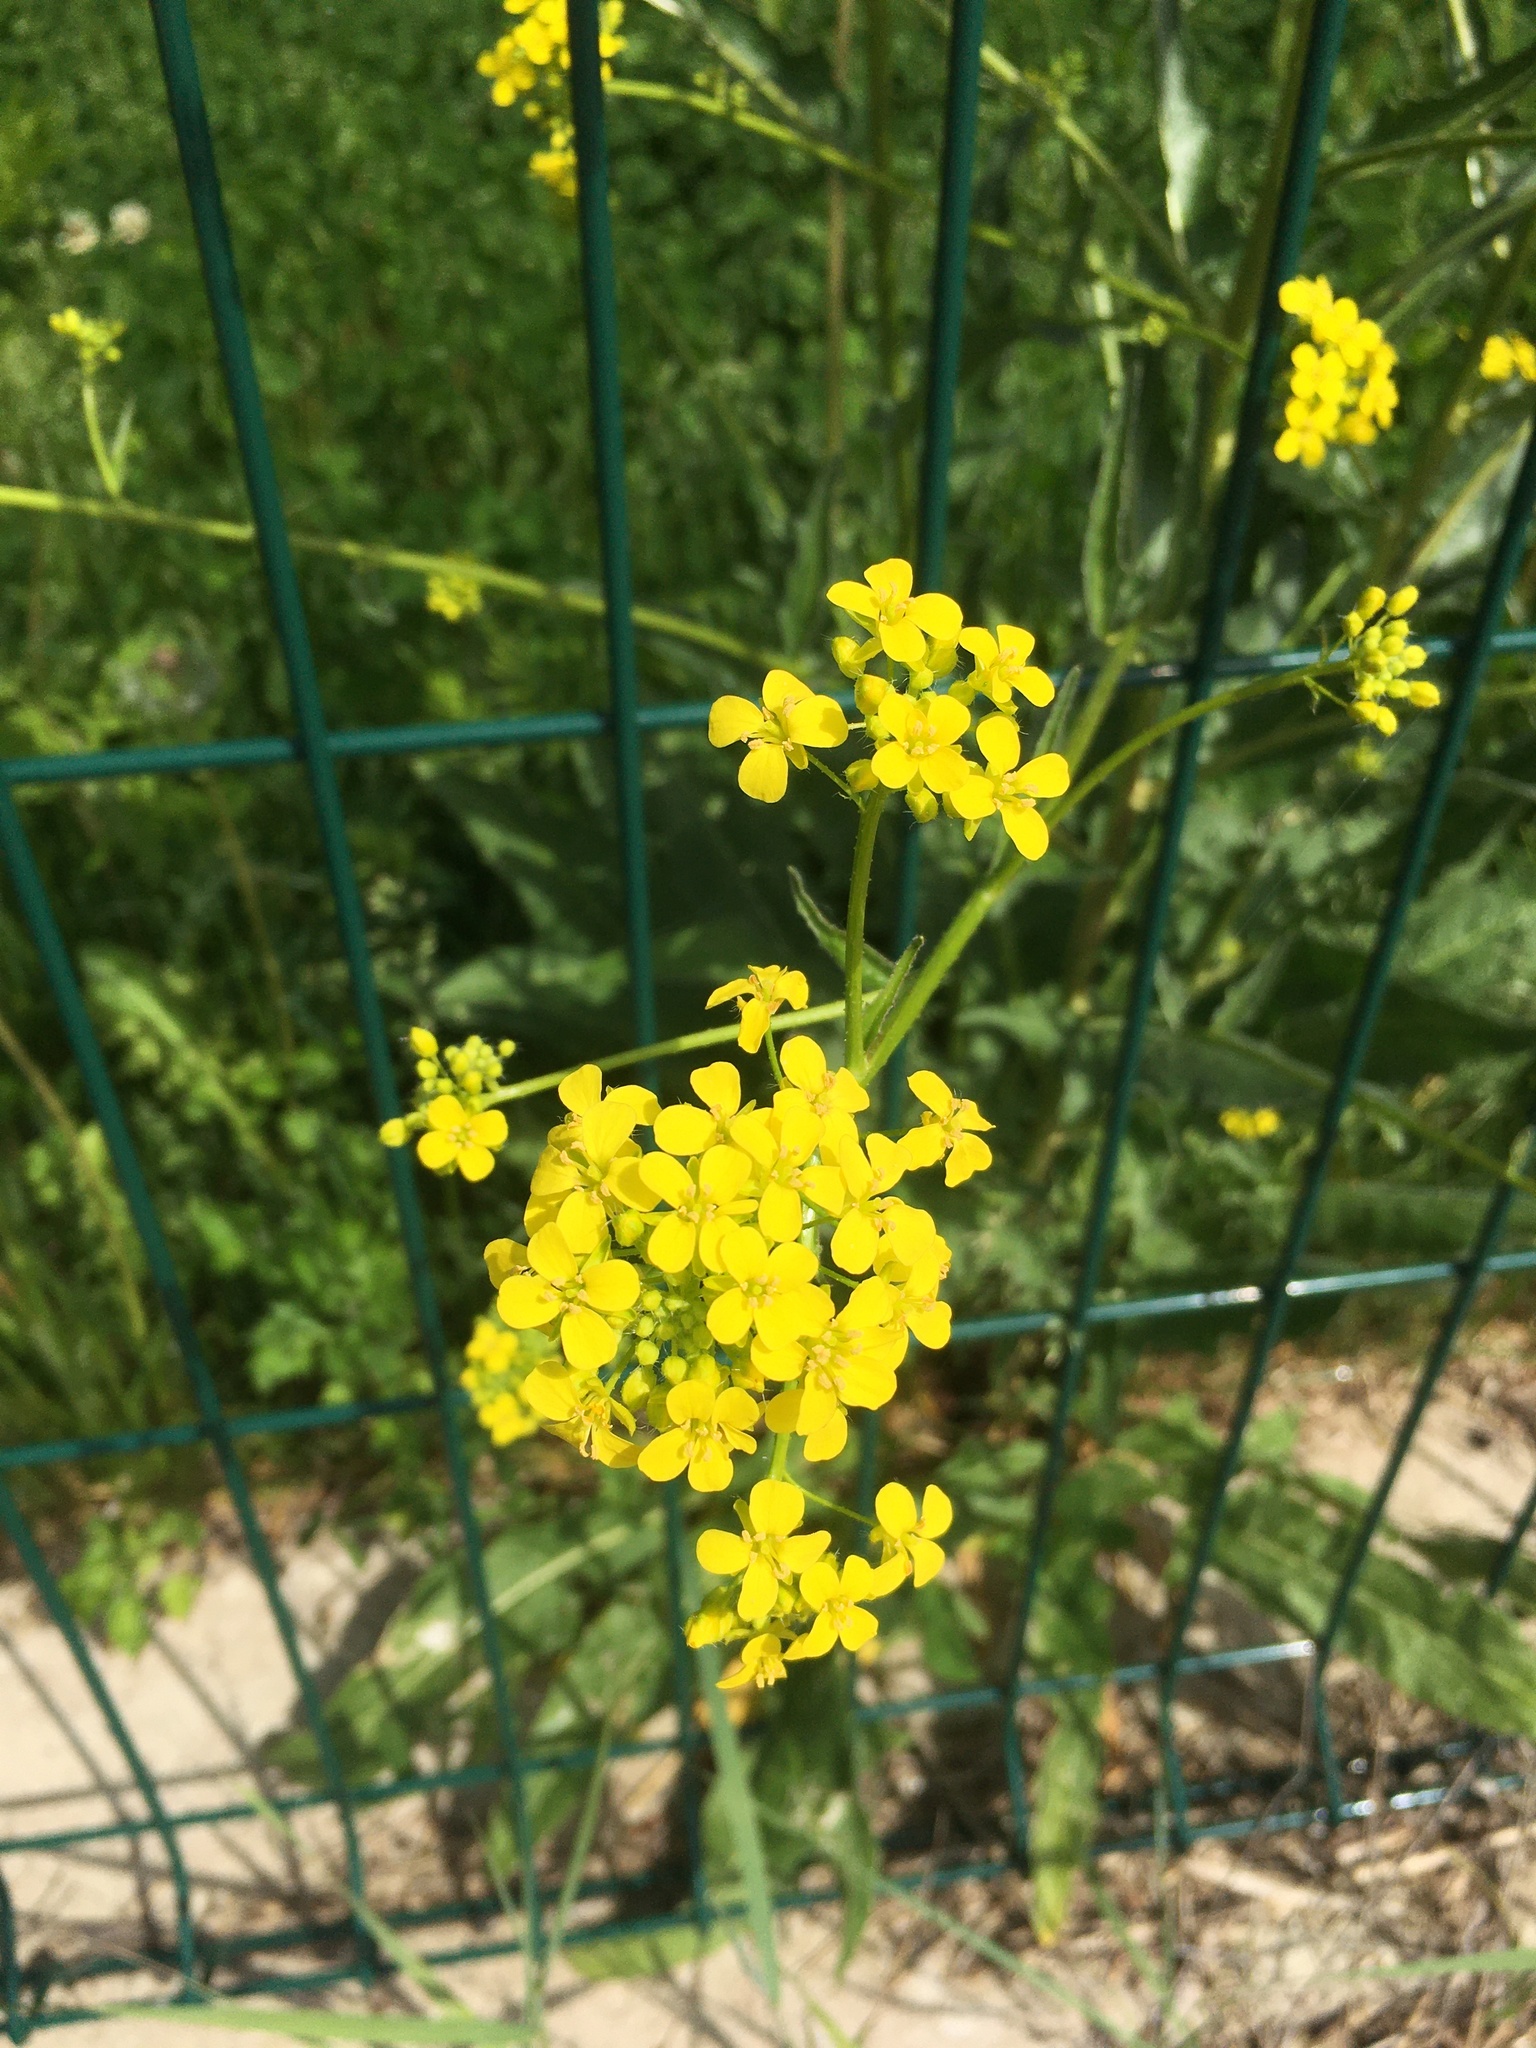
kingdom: Plantae
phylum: Tracheophyta
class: Magnoliopsida
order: Brassicales
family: Brassicaceae
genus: Bunias
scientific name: Bunias orientalis
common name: Warty-cabbage
